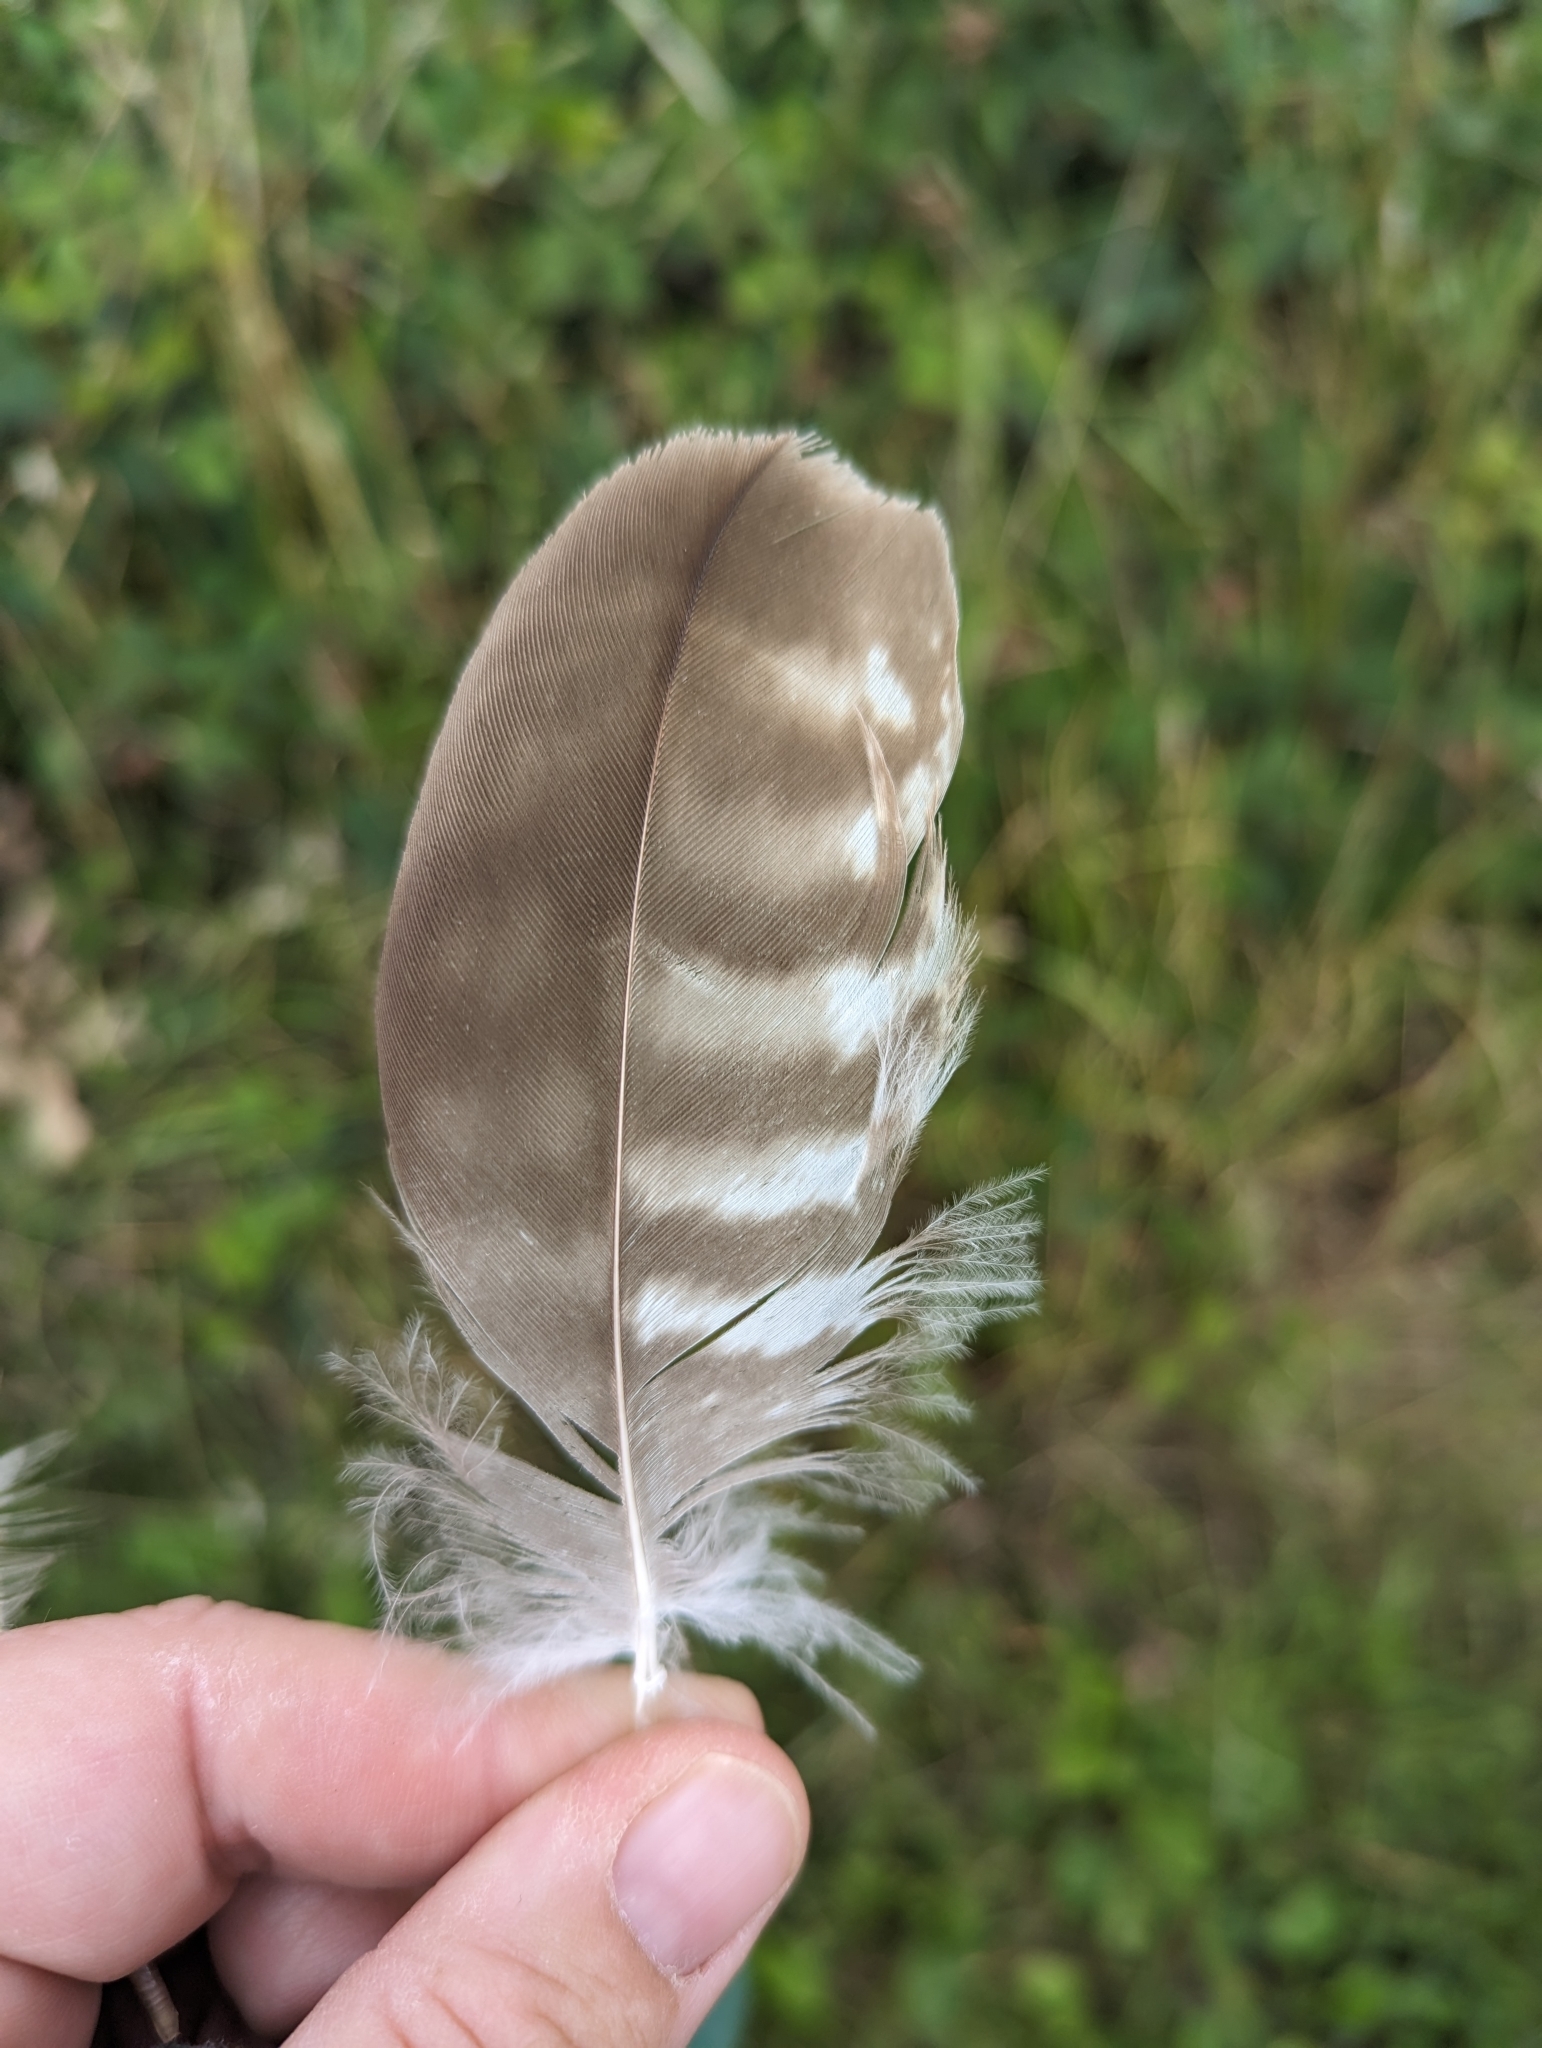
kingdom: Animalia
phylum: Chordata
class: Aves
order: Accipitriformes
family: Accipitridae
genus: Buteo
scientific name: Buteo buteo
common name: Common buzzard
